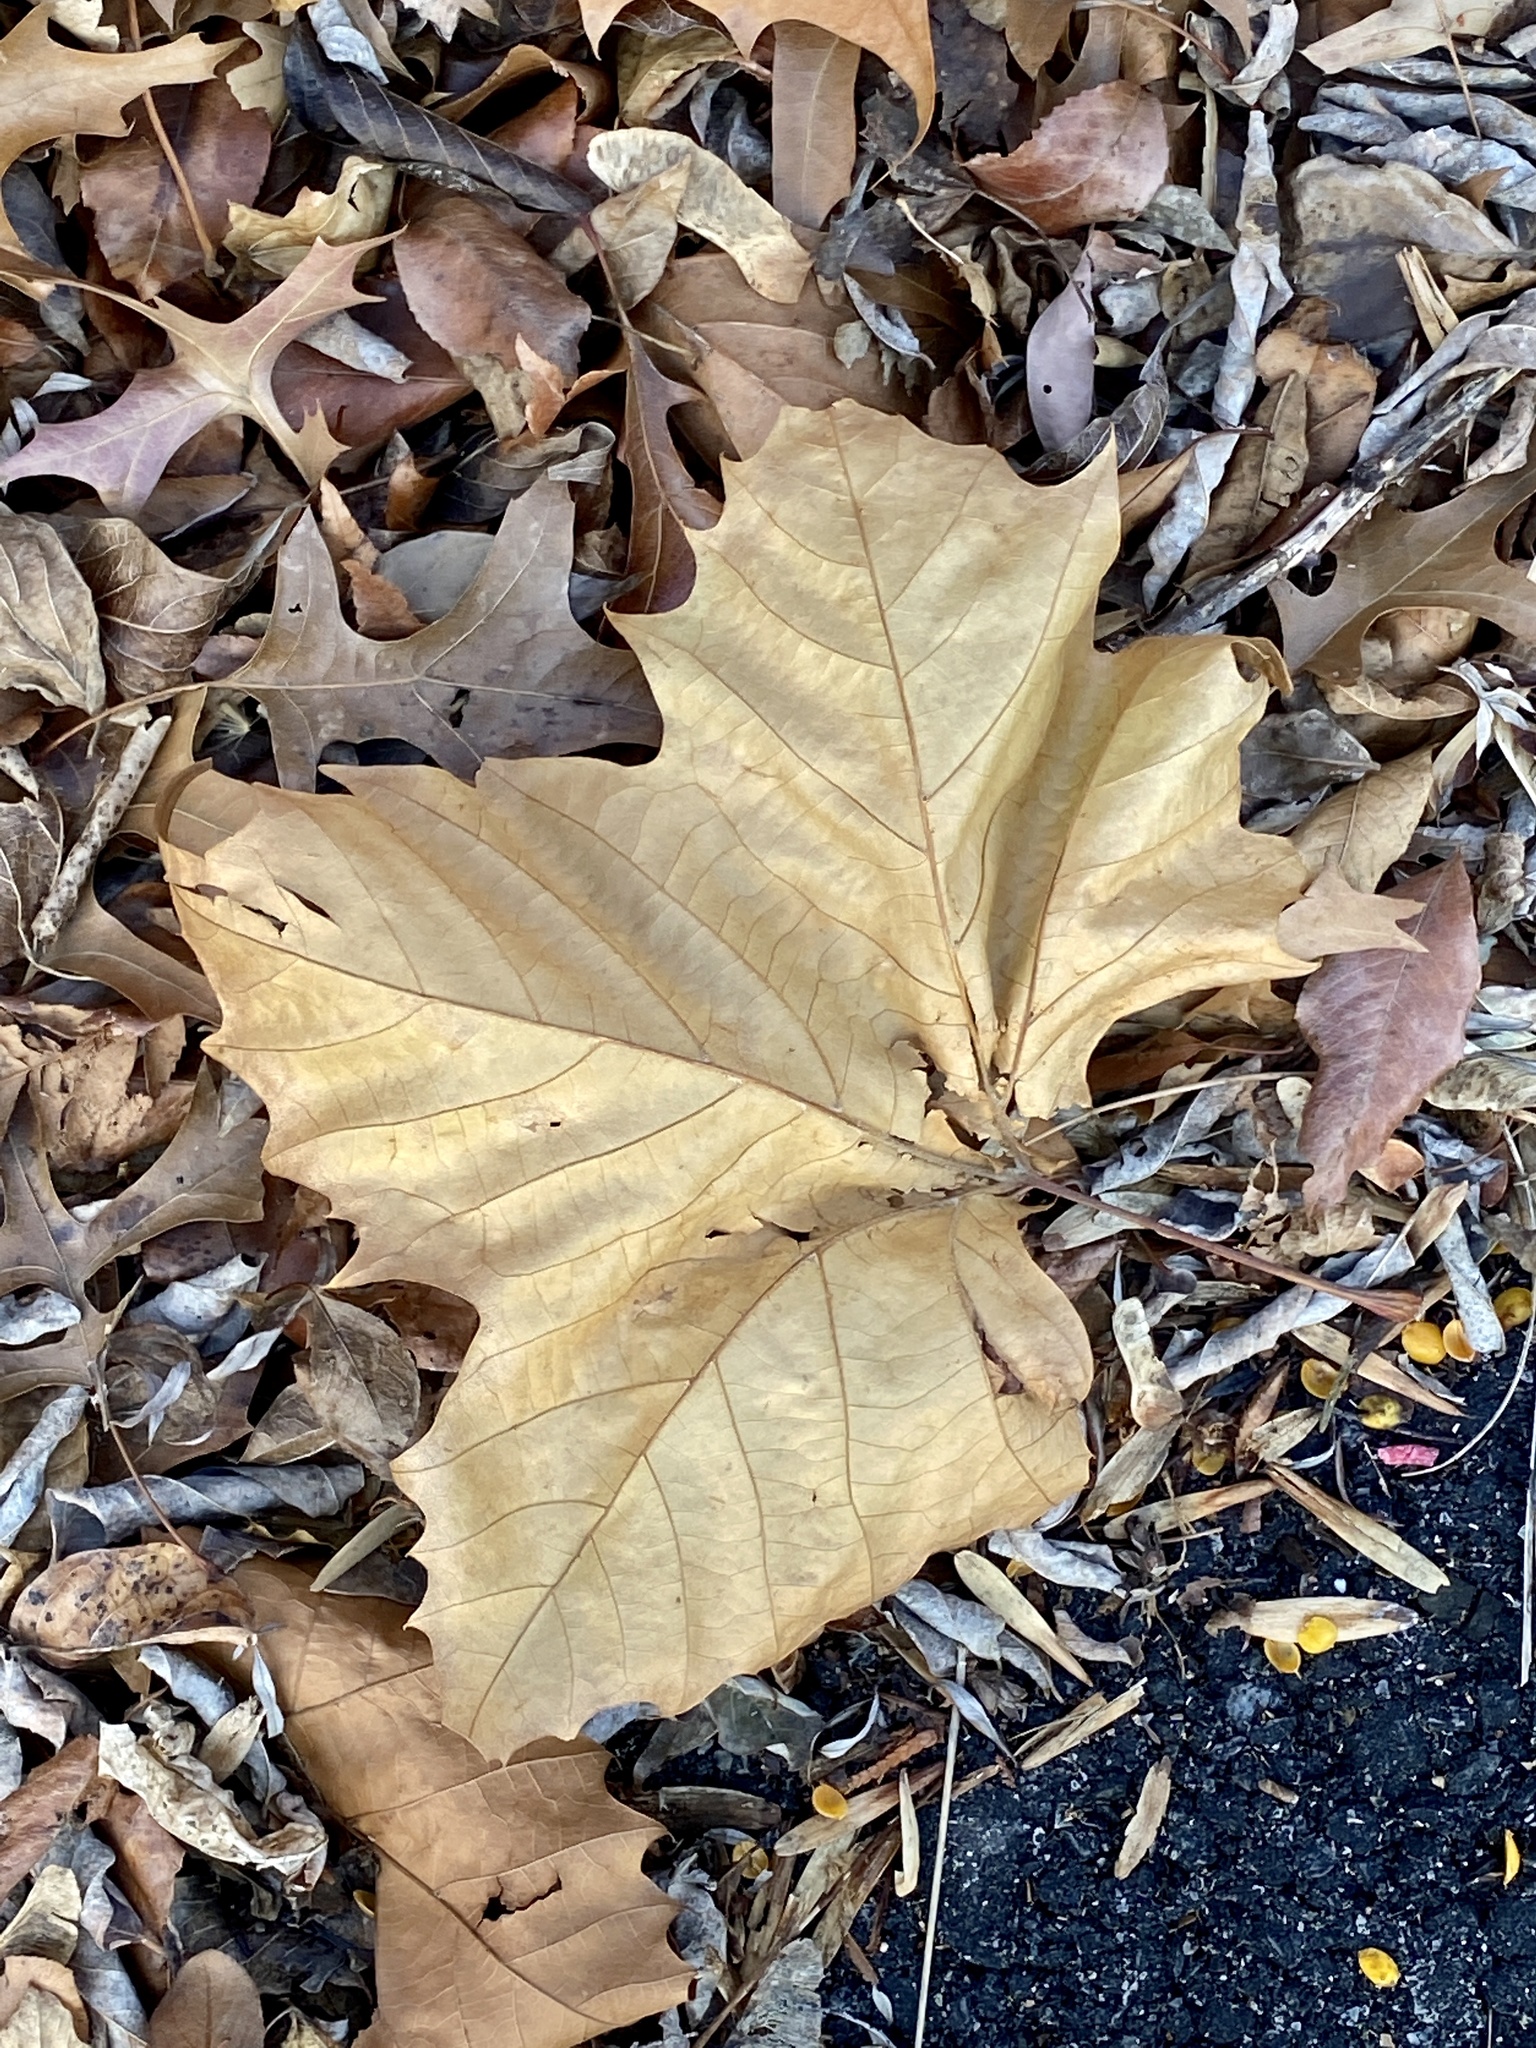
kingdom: Plantae
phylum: Tracheophyta
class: Magnoliopsida
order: Proteales
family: Platanaceae
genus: Platanus
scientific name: Platanus occidentalis
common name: American sycamore
